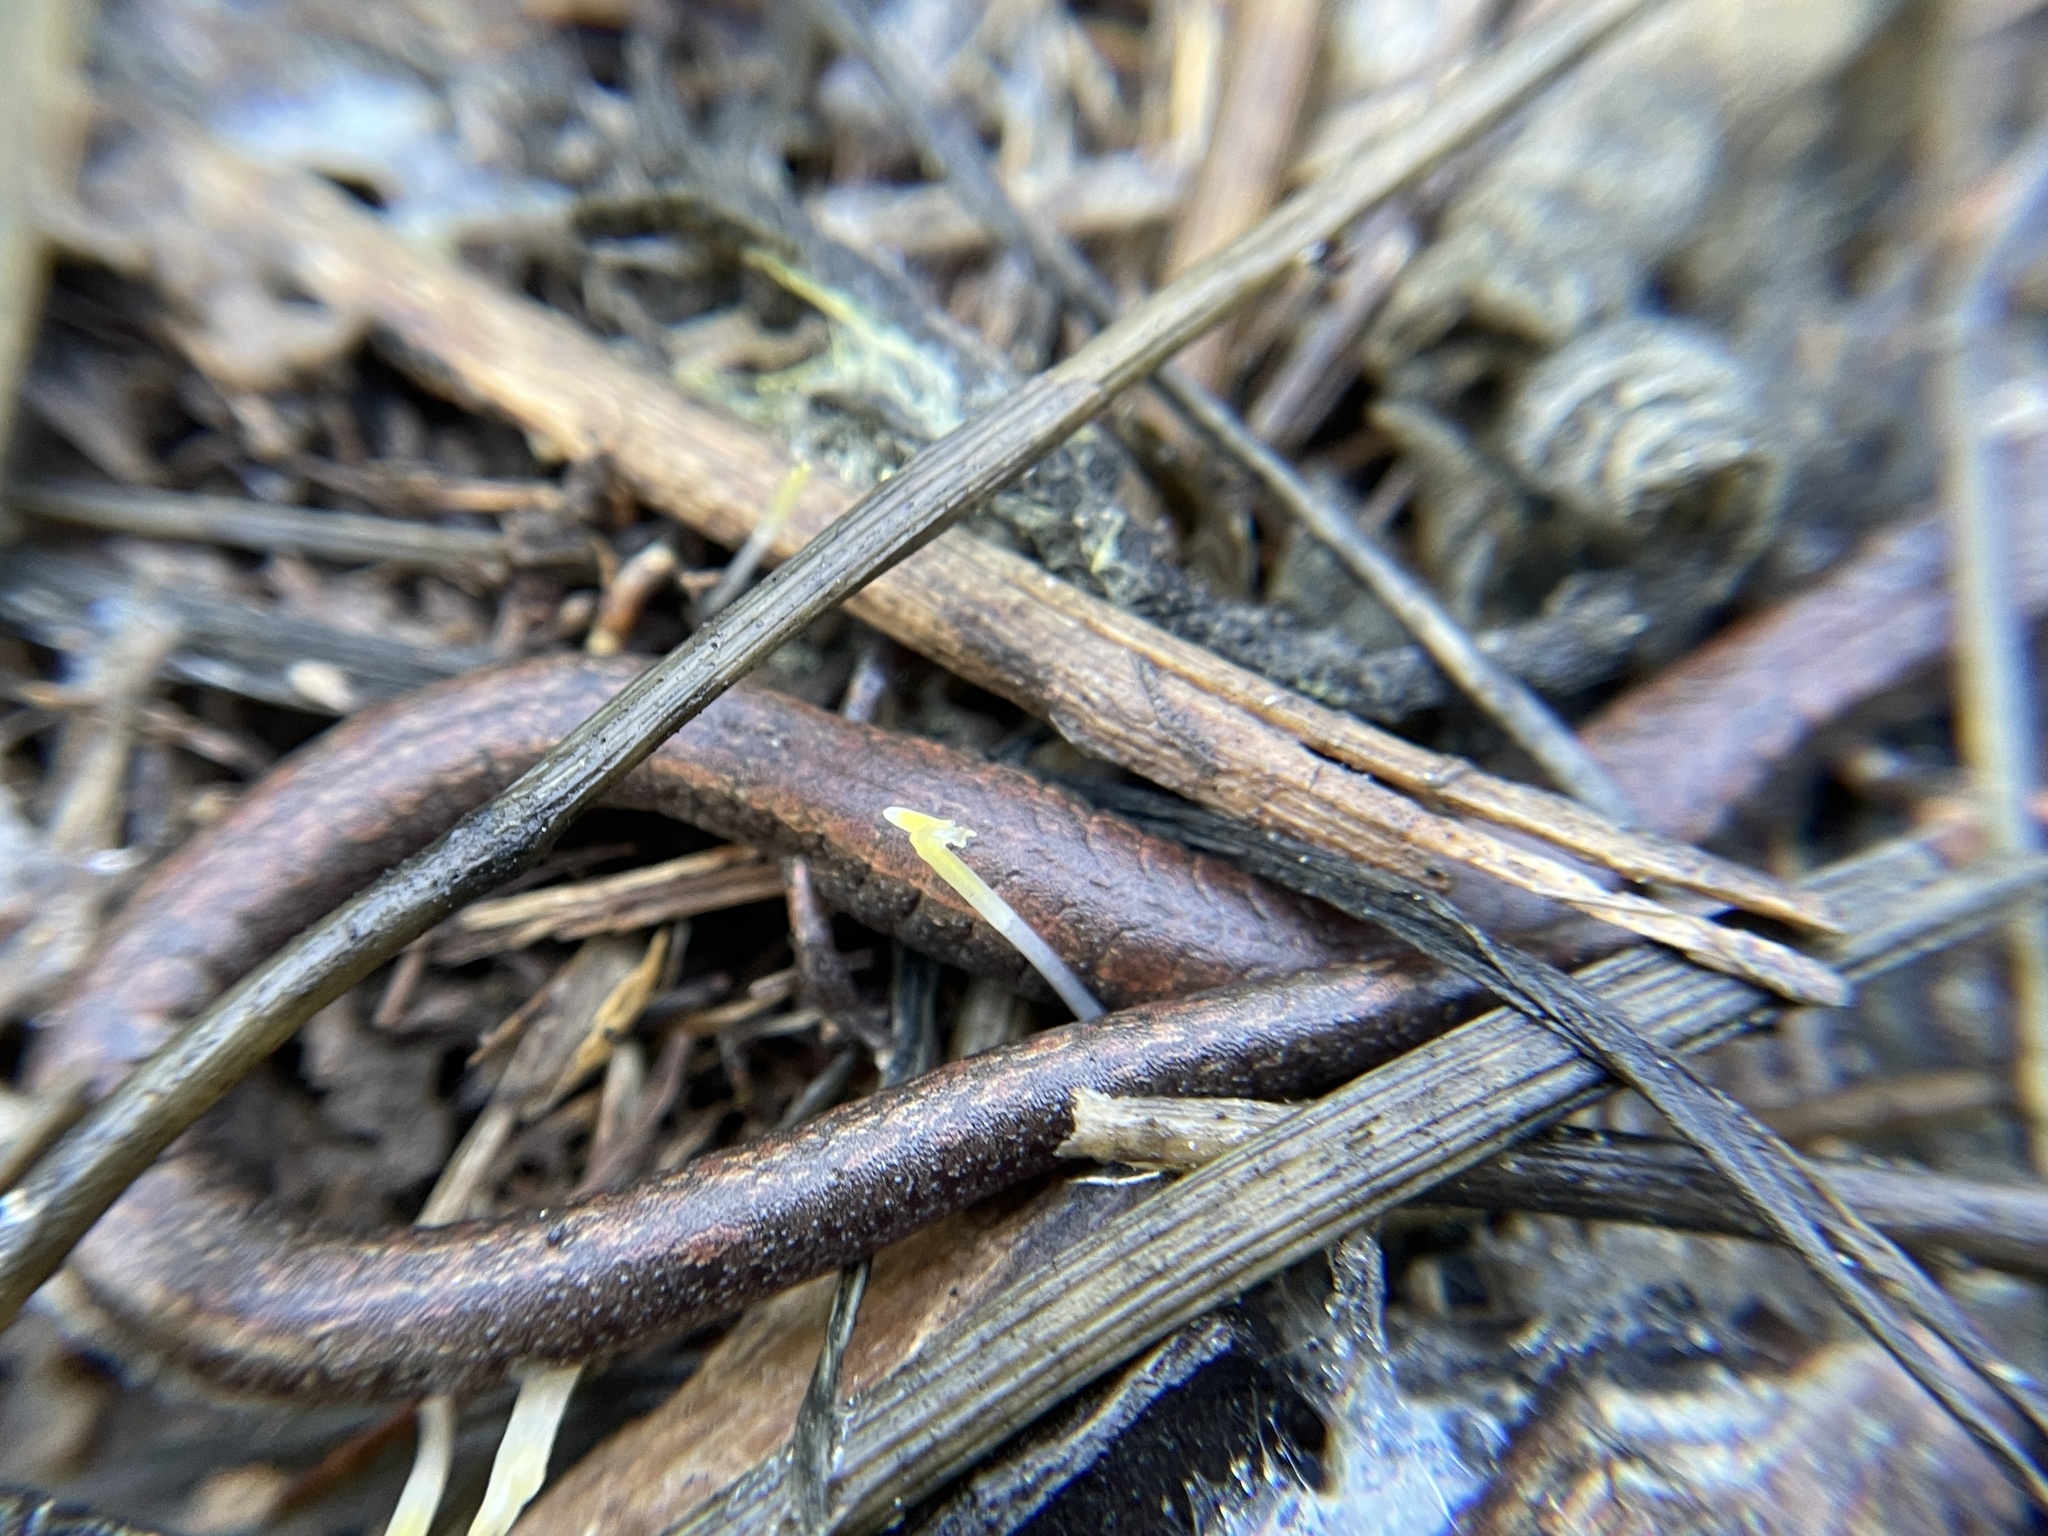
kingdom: Animalia
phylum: Chordata
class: Amphibia
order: Caudata
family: Plethodontidae
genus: Batrachoseps
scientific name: Batrachoseps attenuatus
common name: California slender salamander
